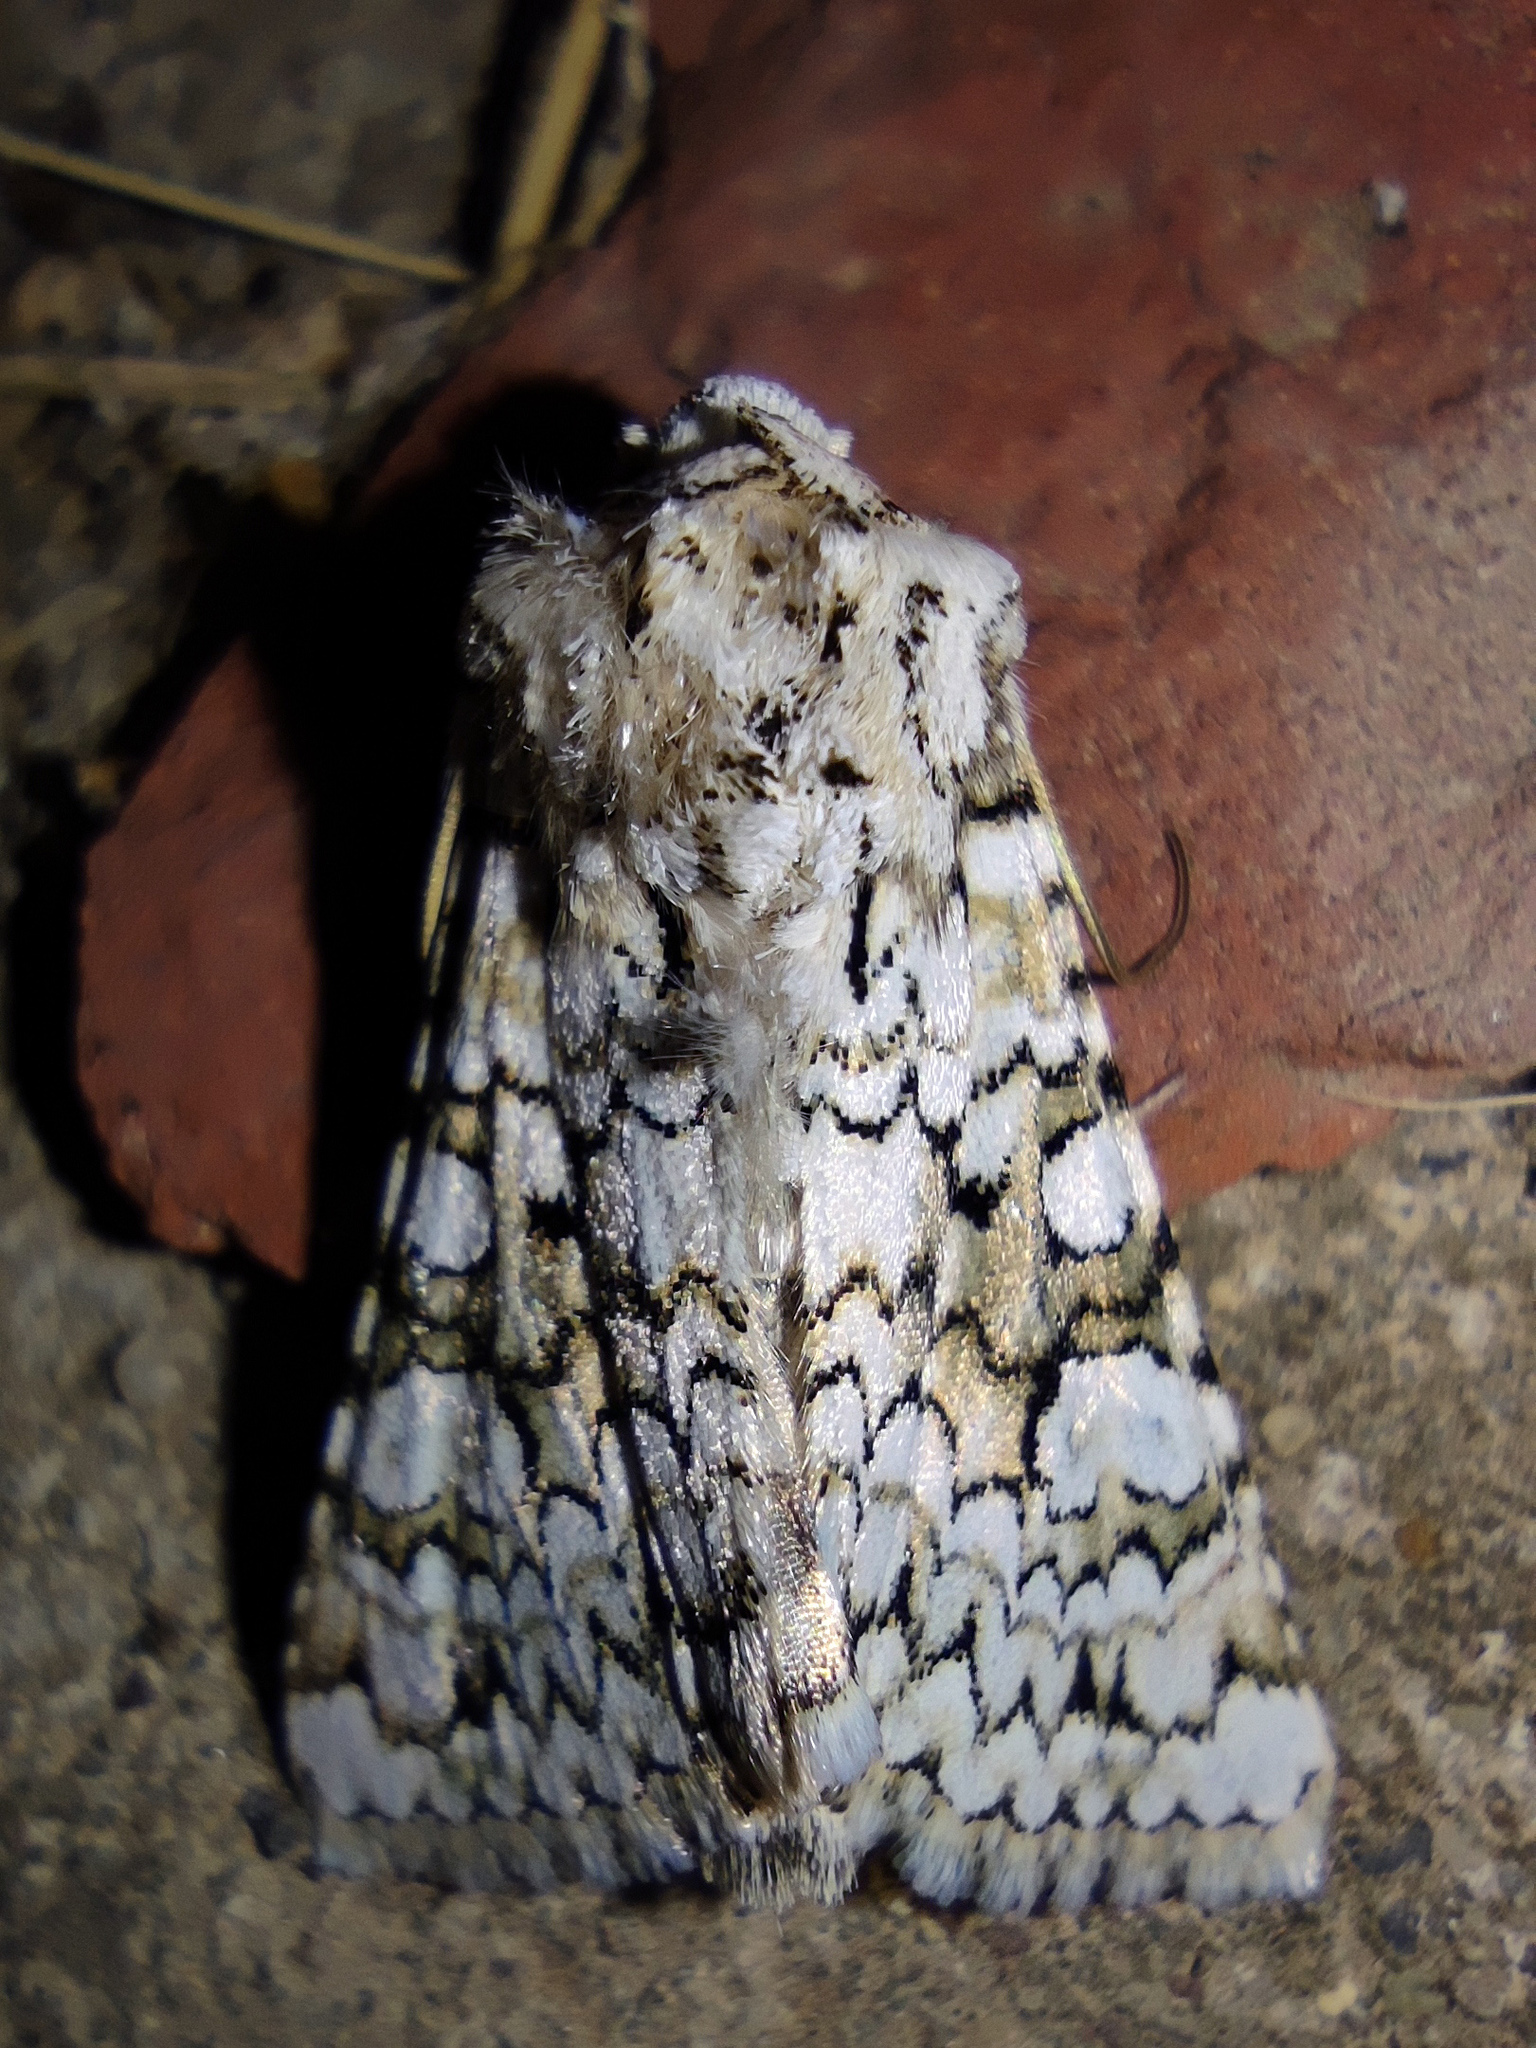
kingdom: Animalia
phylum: Arthropoda
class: Insecta
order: Lepidoptera
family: Noctuidae
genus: Hecatera
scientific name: Hecatera cappa
